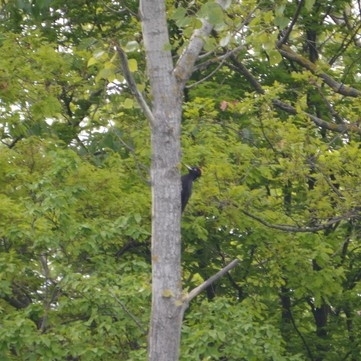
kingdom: Animalia
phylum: Chordata
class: Aves
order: Piciformes
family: Picidae
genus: Dryocopus
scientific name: Dryocopus martius
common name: Black woodpecker
